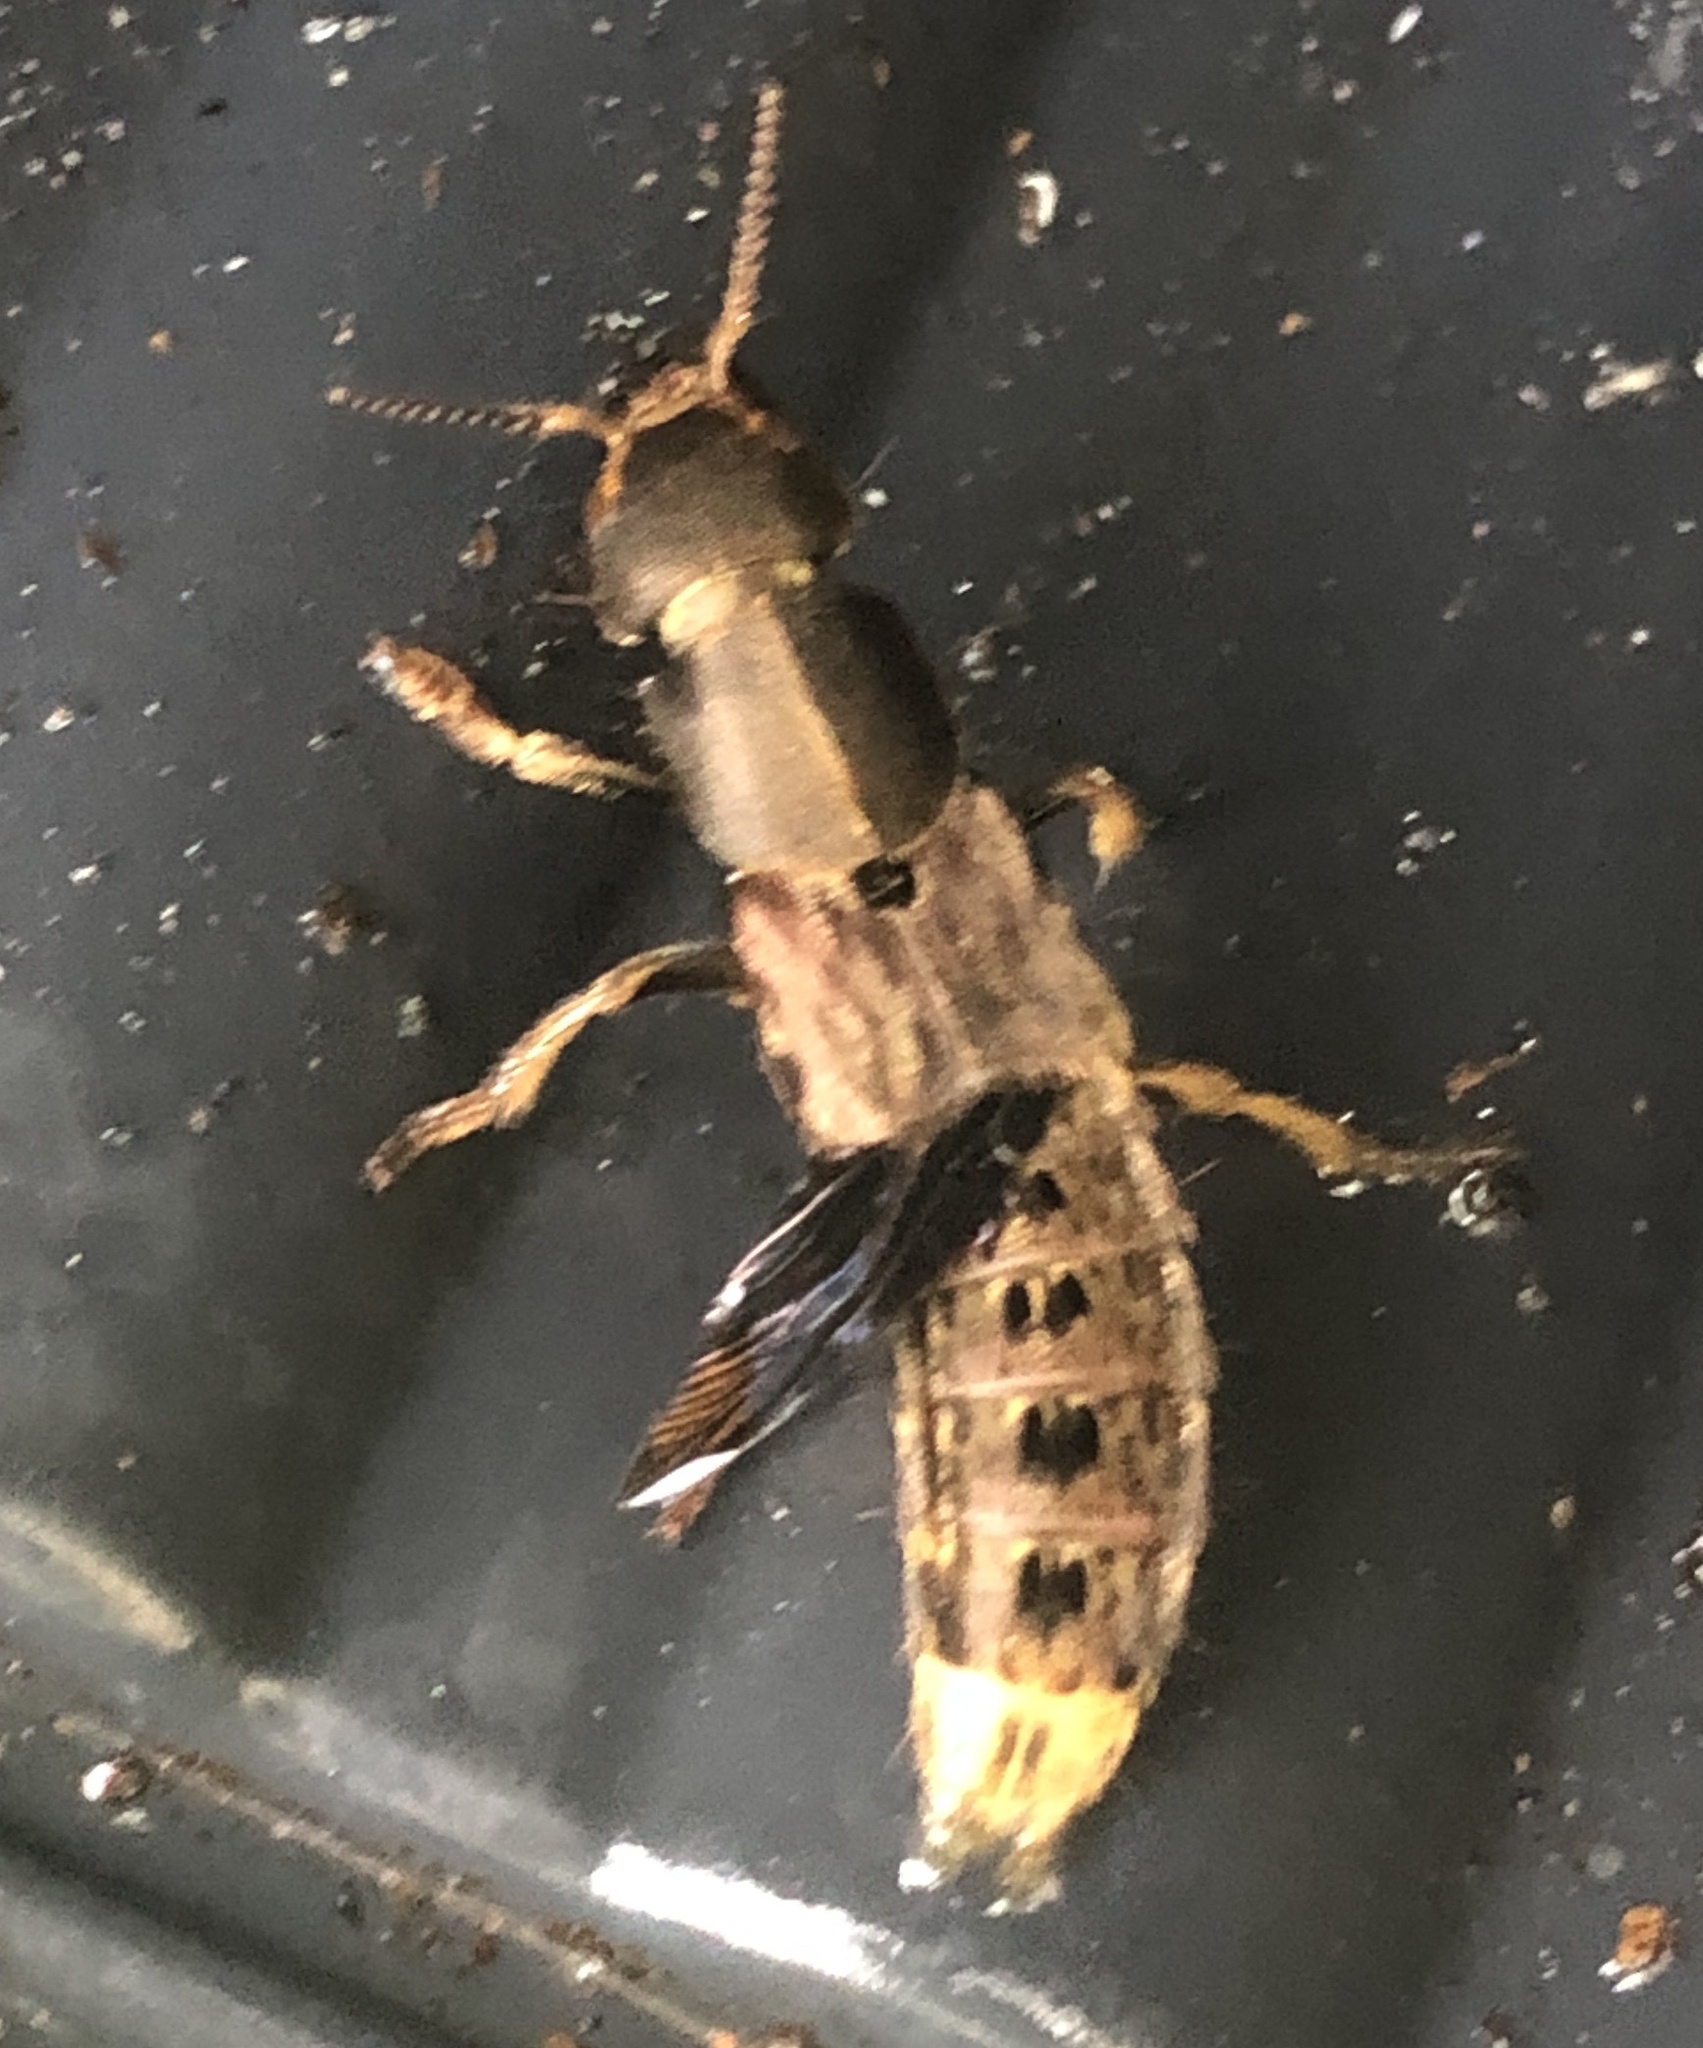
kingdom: Animalia
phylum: Arthropoda
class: Insecta
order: Coleoptera
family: Staphylinidae
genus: Platydracus
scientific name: Platydracus maculosus
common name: Brown rove beetle
